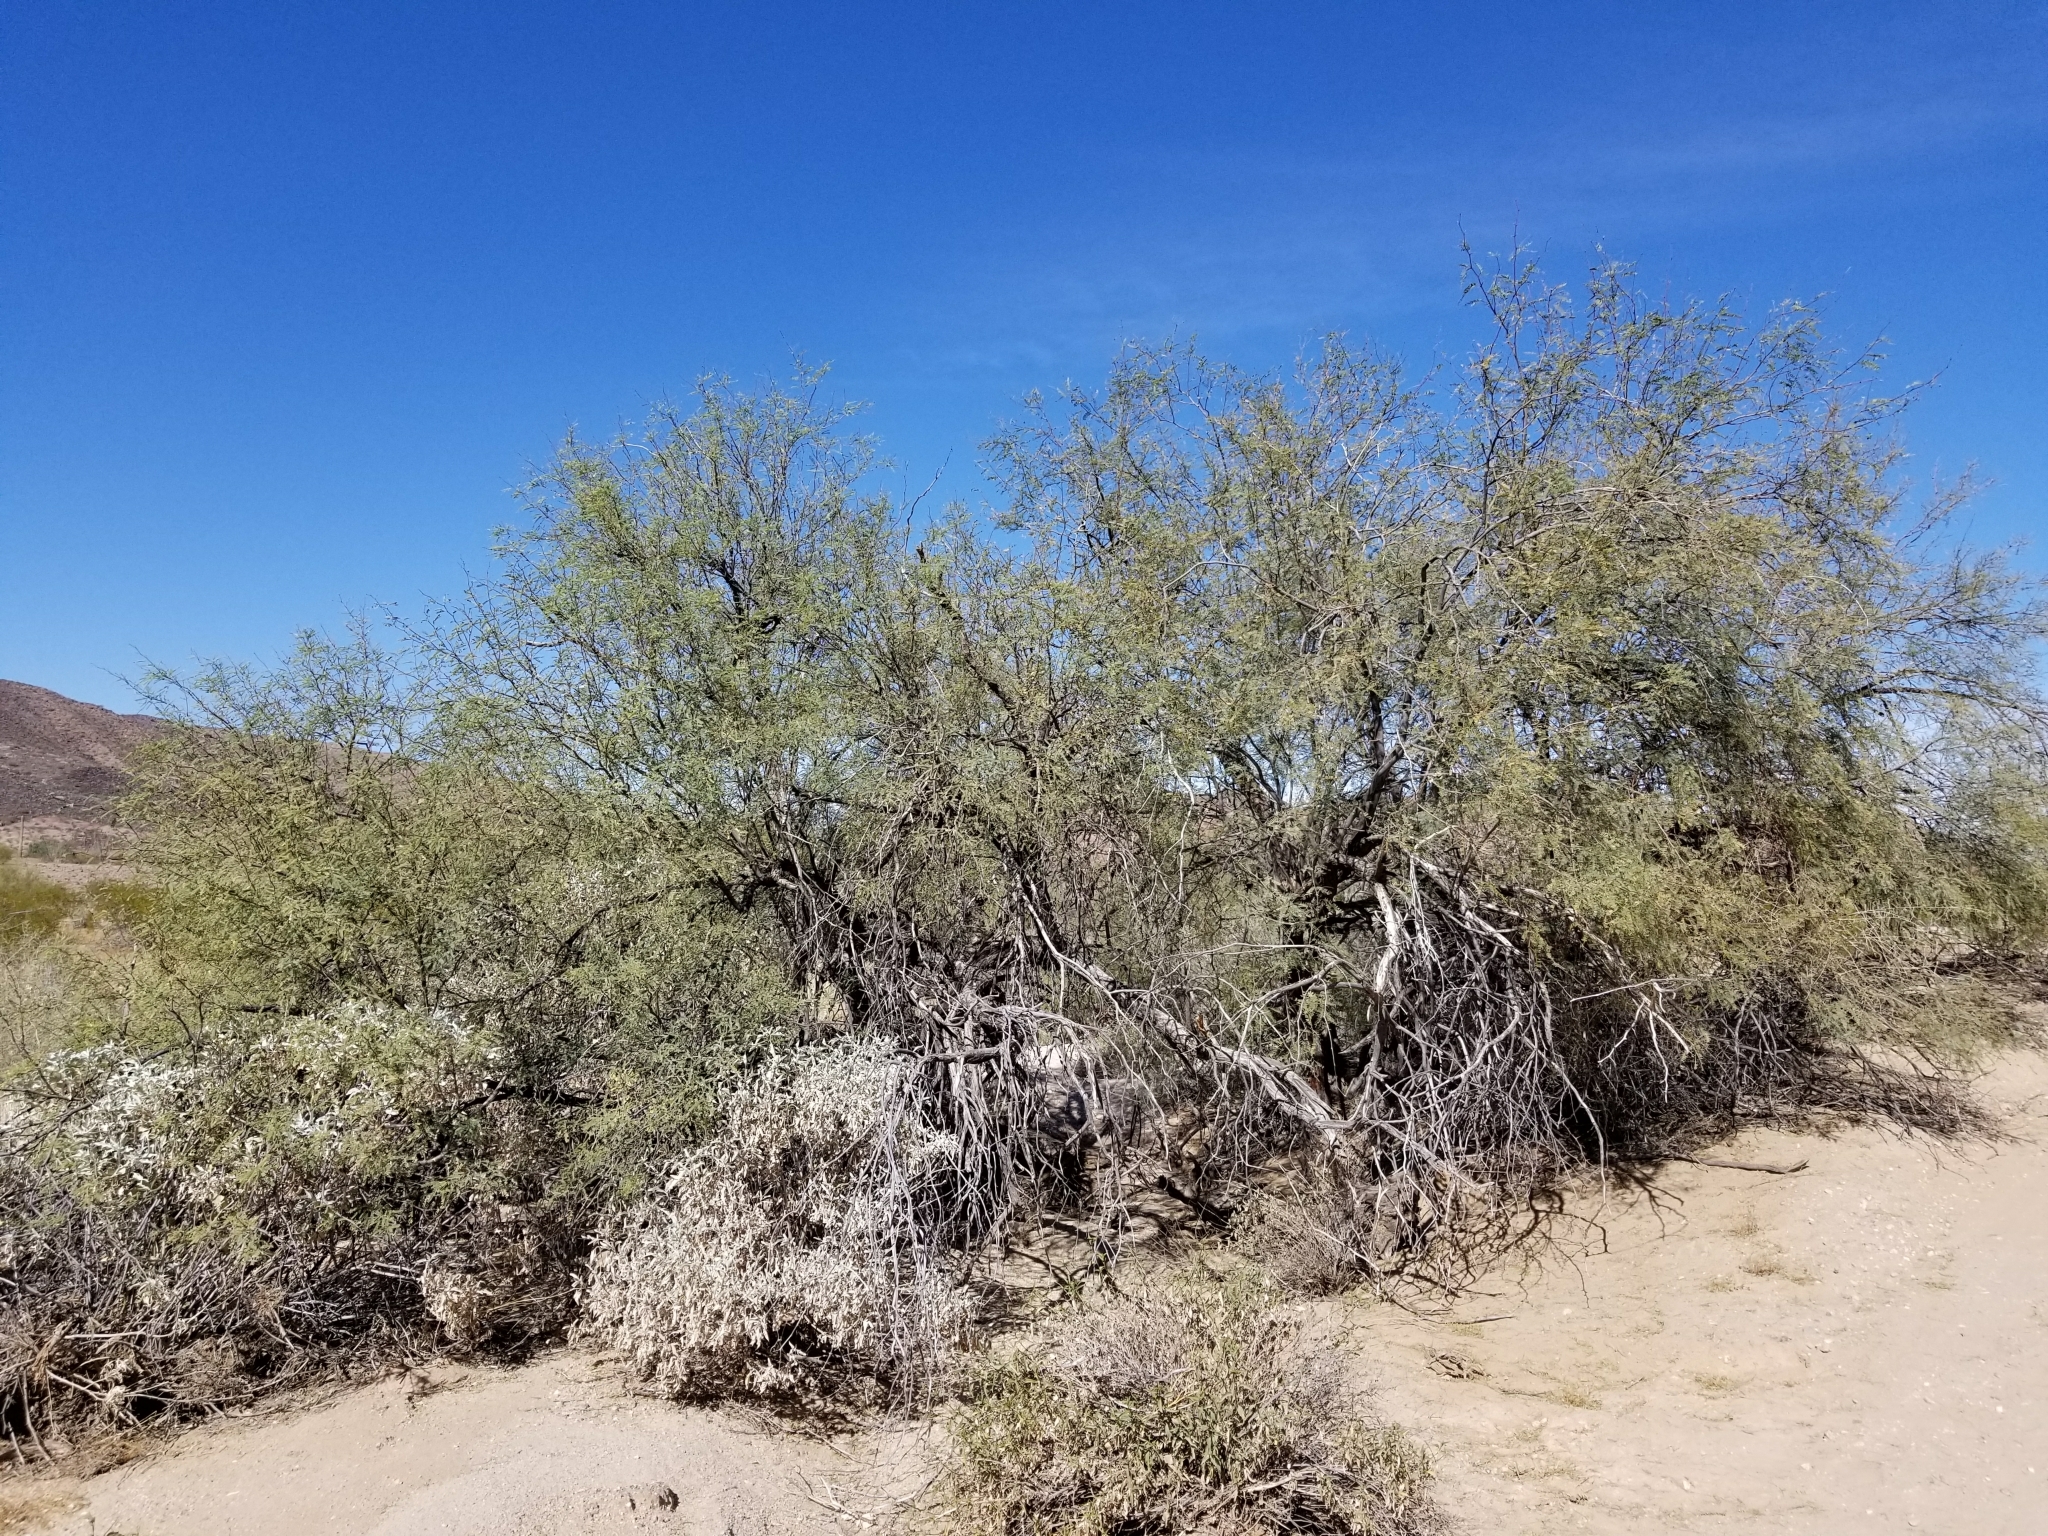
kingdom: Plantae
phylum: Tracheophyta
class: Magnoliopsida
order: Fabales
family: Fabaceae
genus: Prosopis
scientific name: Prosopis glandulosa
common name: Honey mesquite
